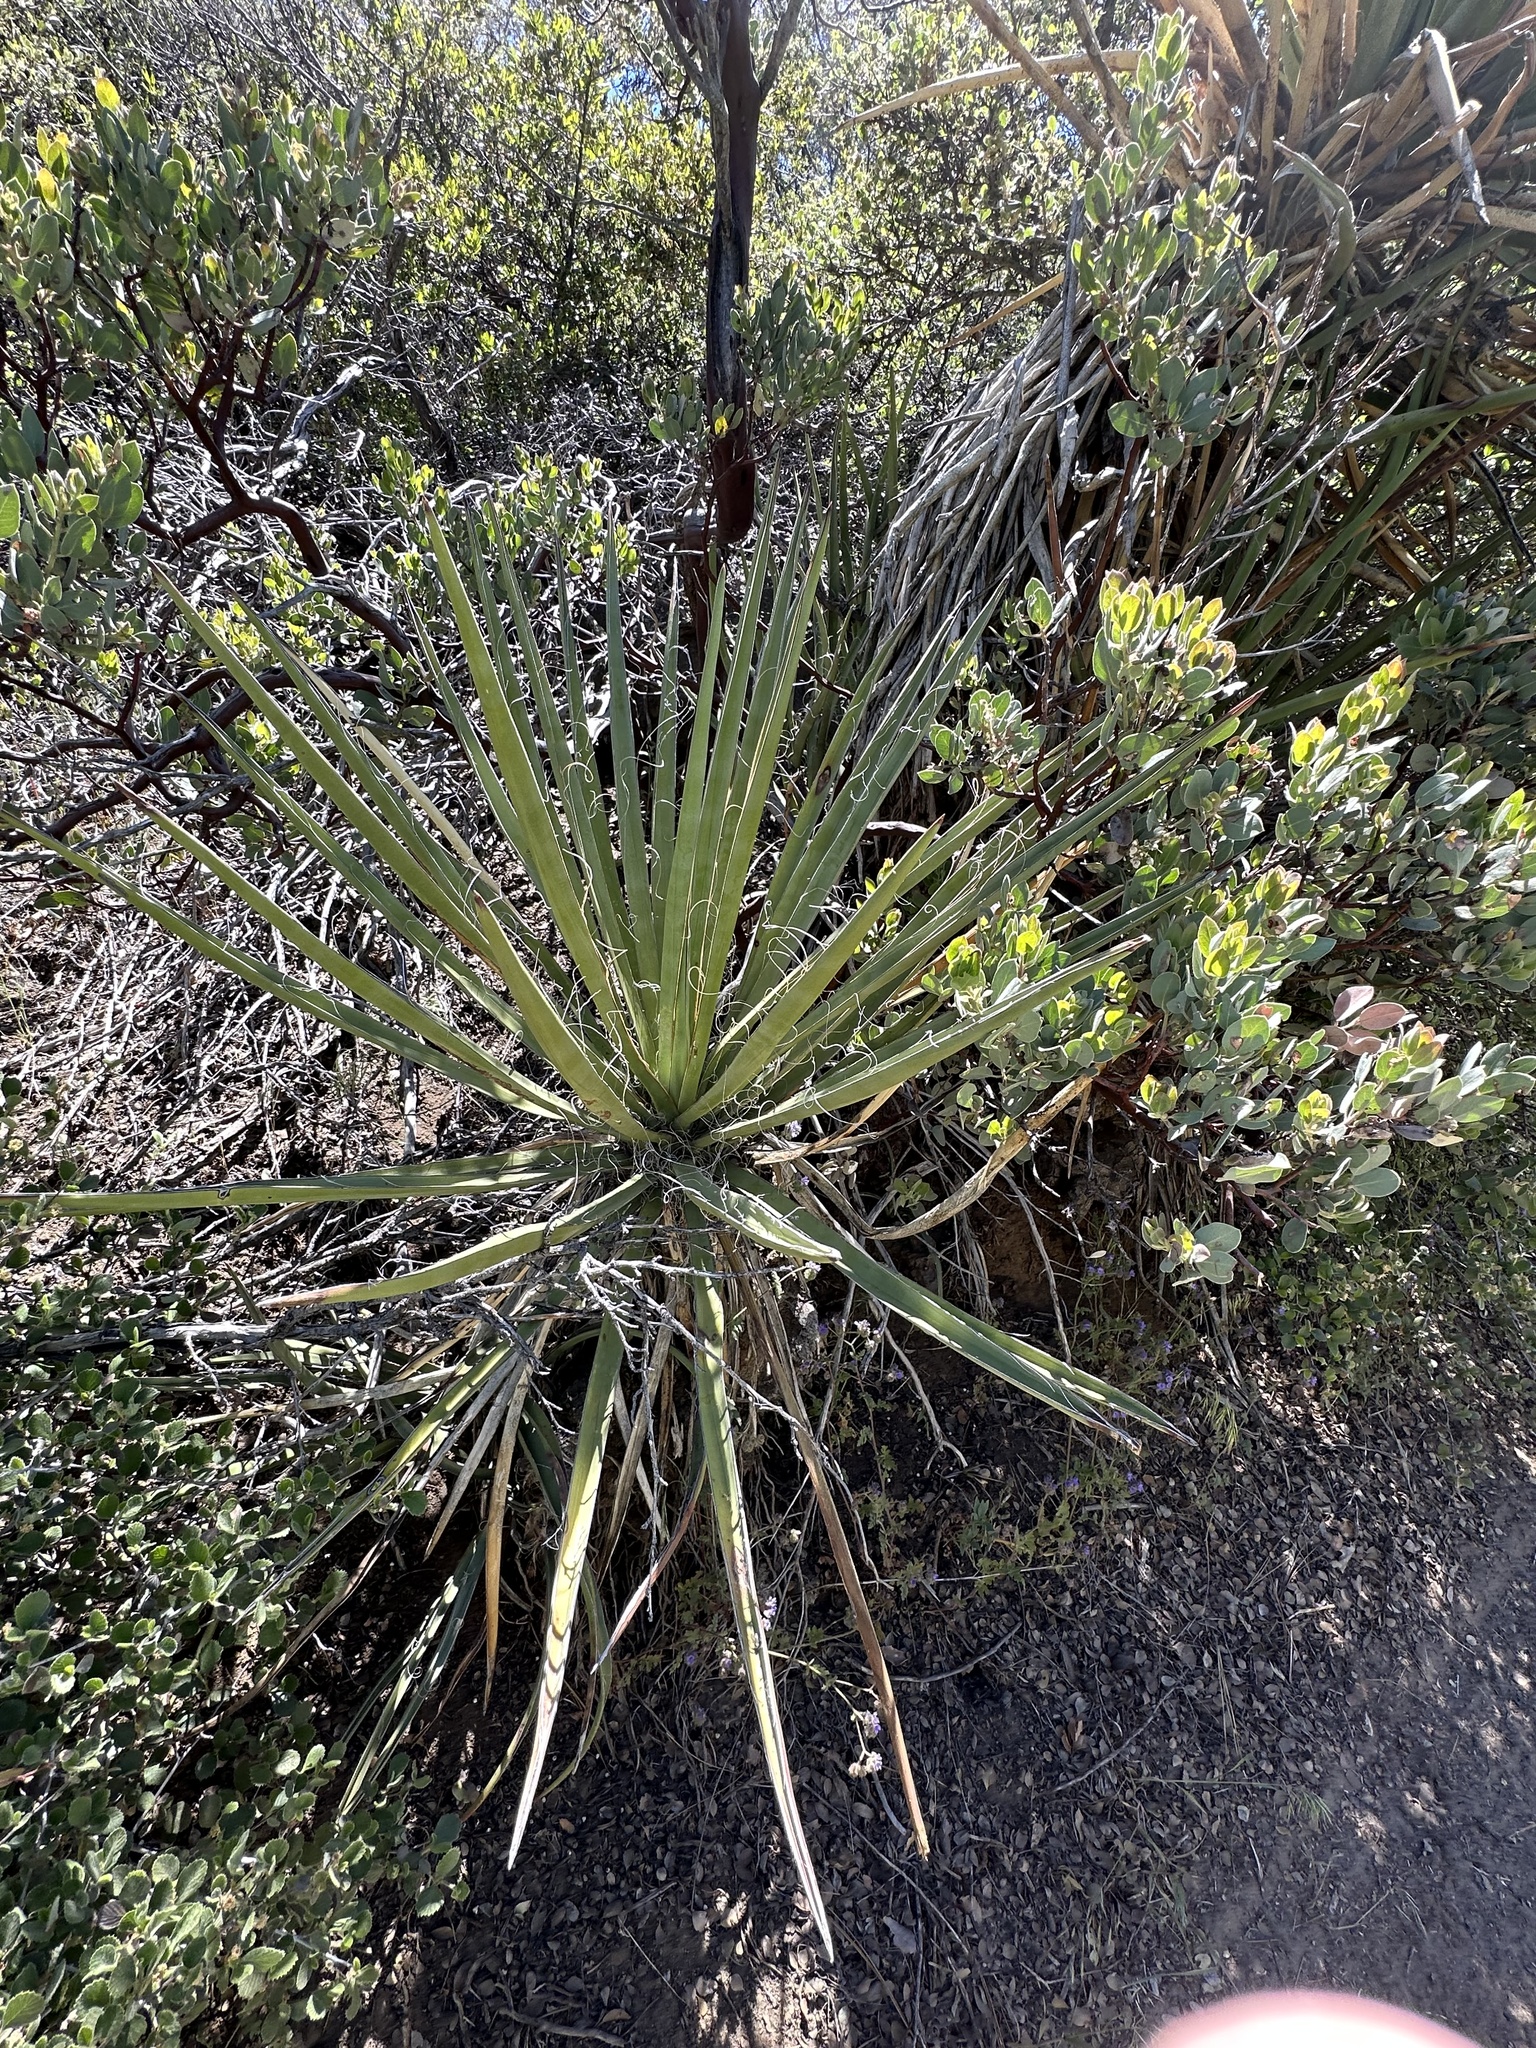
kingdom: Plantae
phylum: Tracheophyta
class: Liliopsida
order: Asparagales
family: Asparagaceae
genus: Yucca
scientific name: Yucca schidigera
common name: Mojave yucca
